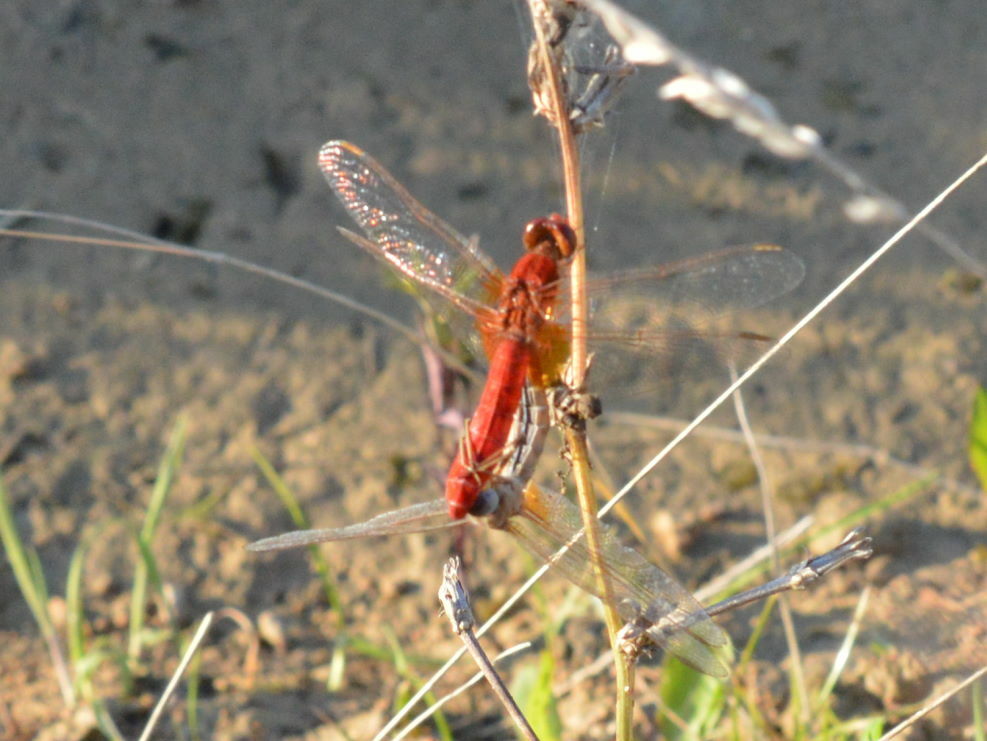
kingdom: Animalia
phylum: Arthropoda
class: Insecta
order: Odonata
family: Libellulidae
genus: Crocothemis
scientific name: Crocothemis erythraea
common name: Scarlet dragonfly
